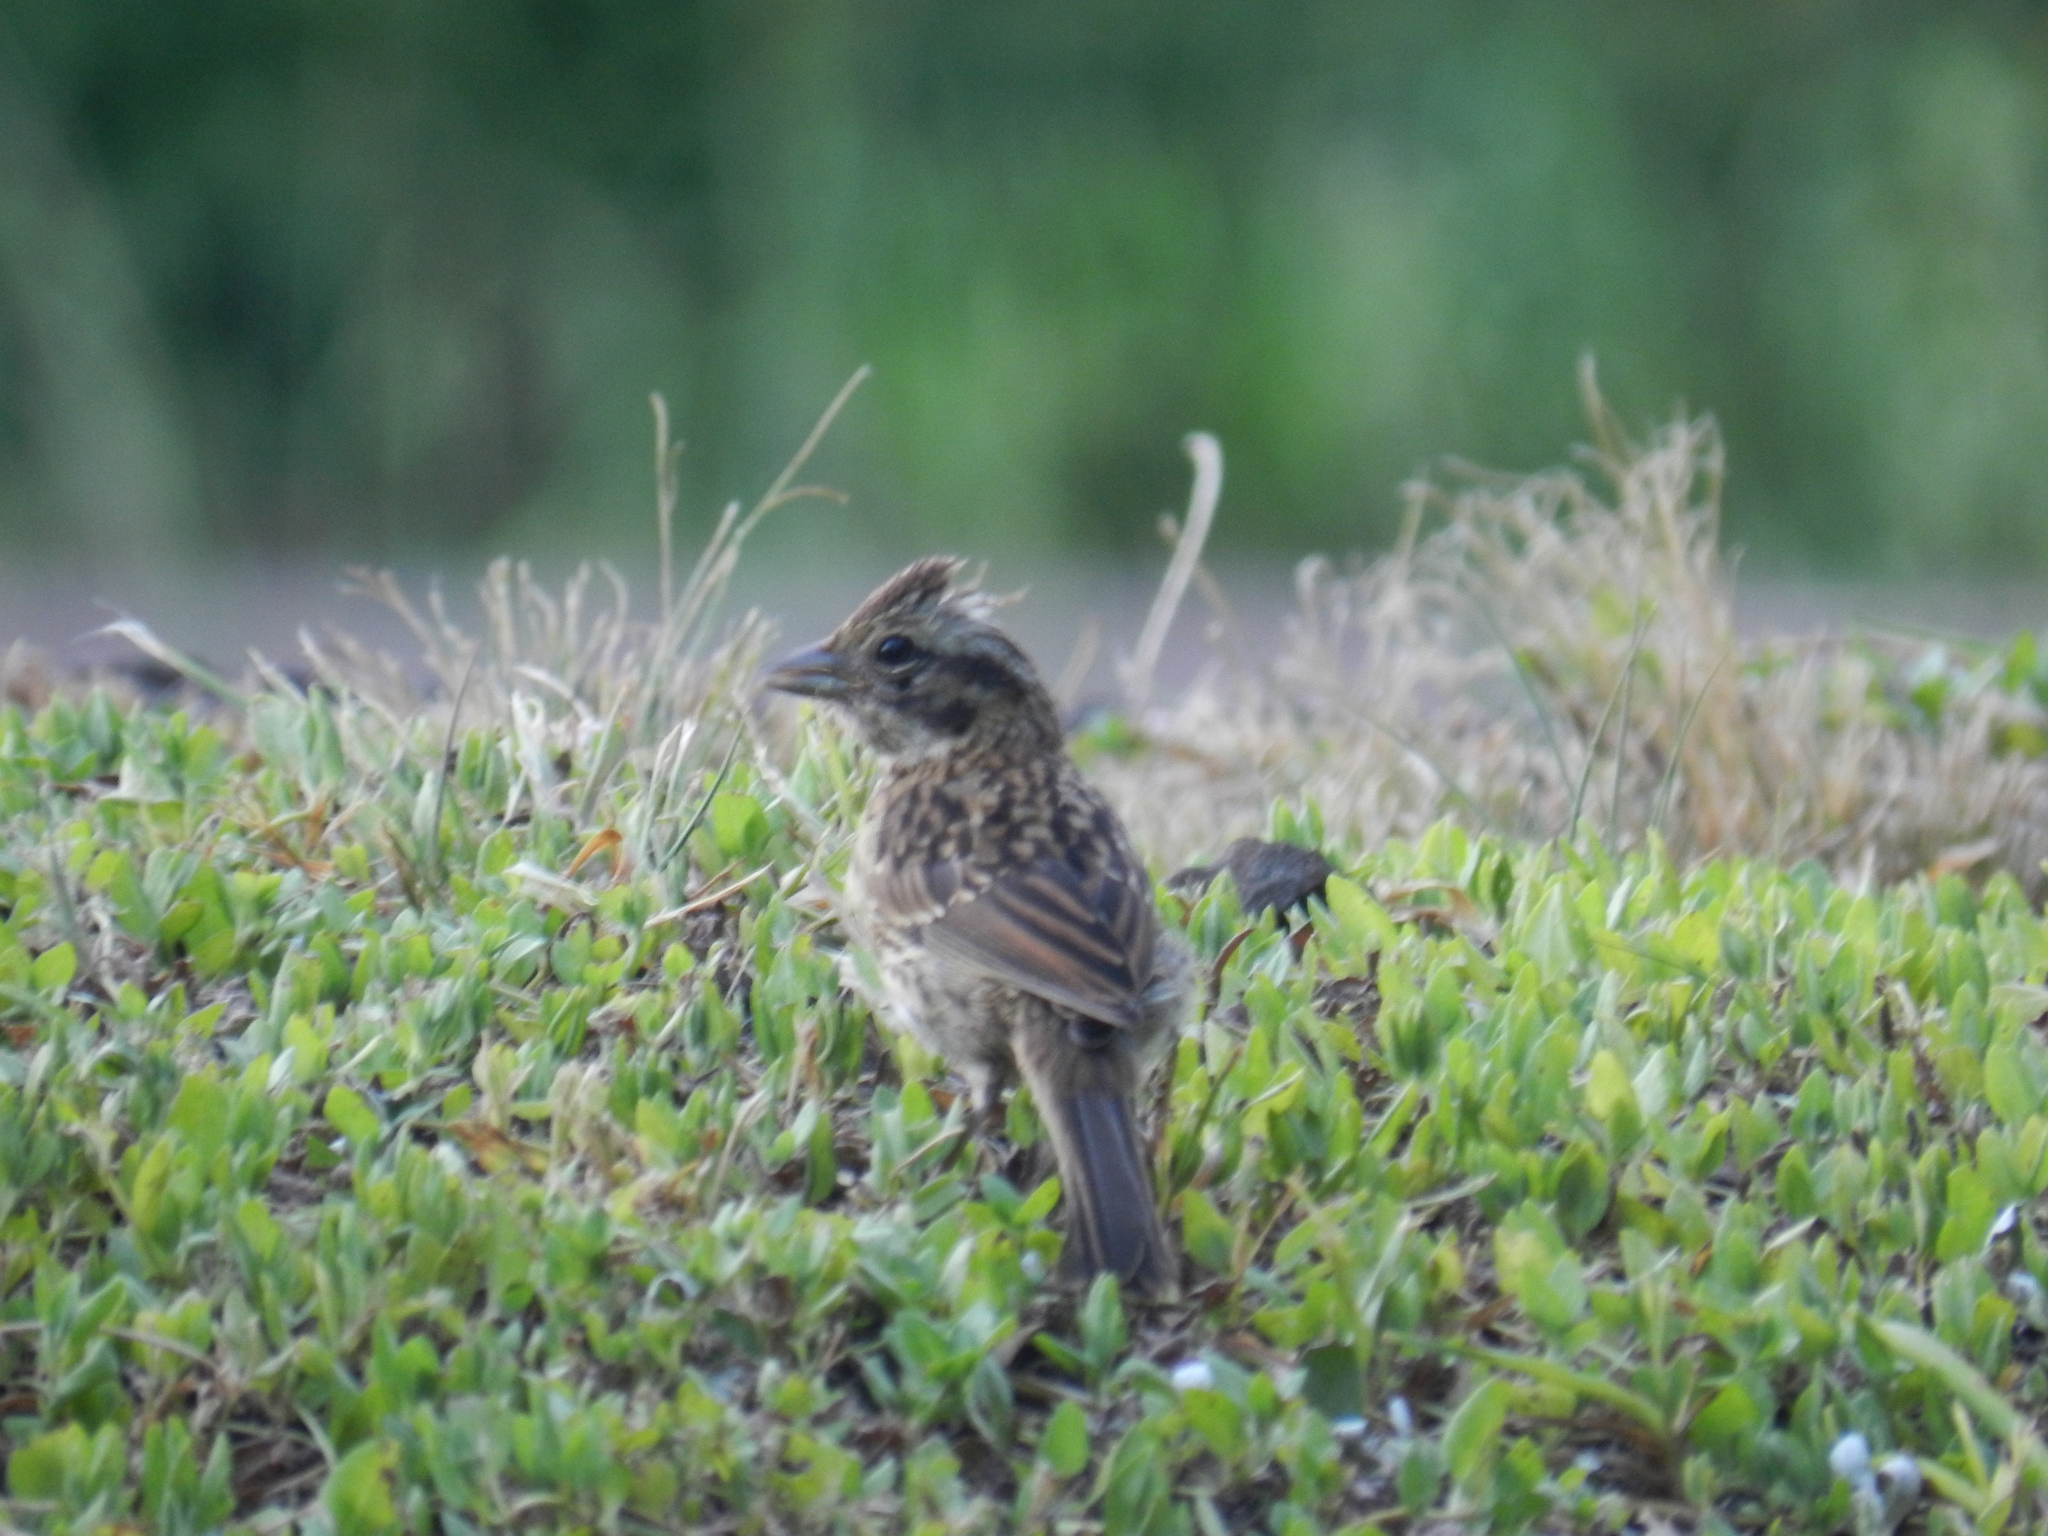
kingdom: Animalia
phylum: Chordata
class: Aves
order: Passeriformes
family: Passerellidae
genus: Zonotrichia
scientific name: Zonotrichia capensis
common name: Rufous-collared sparrow
